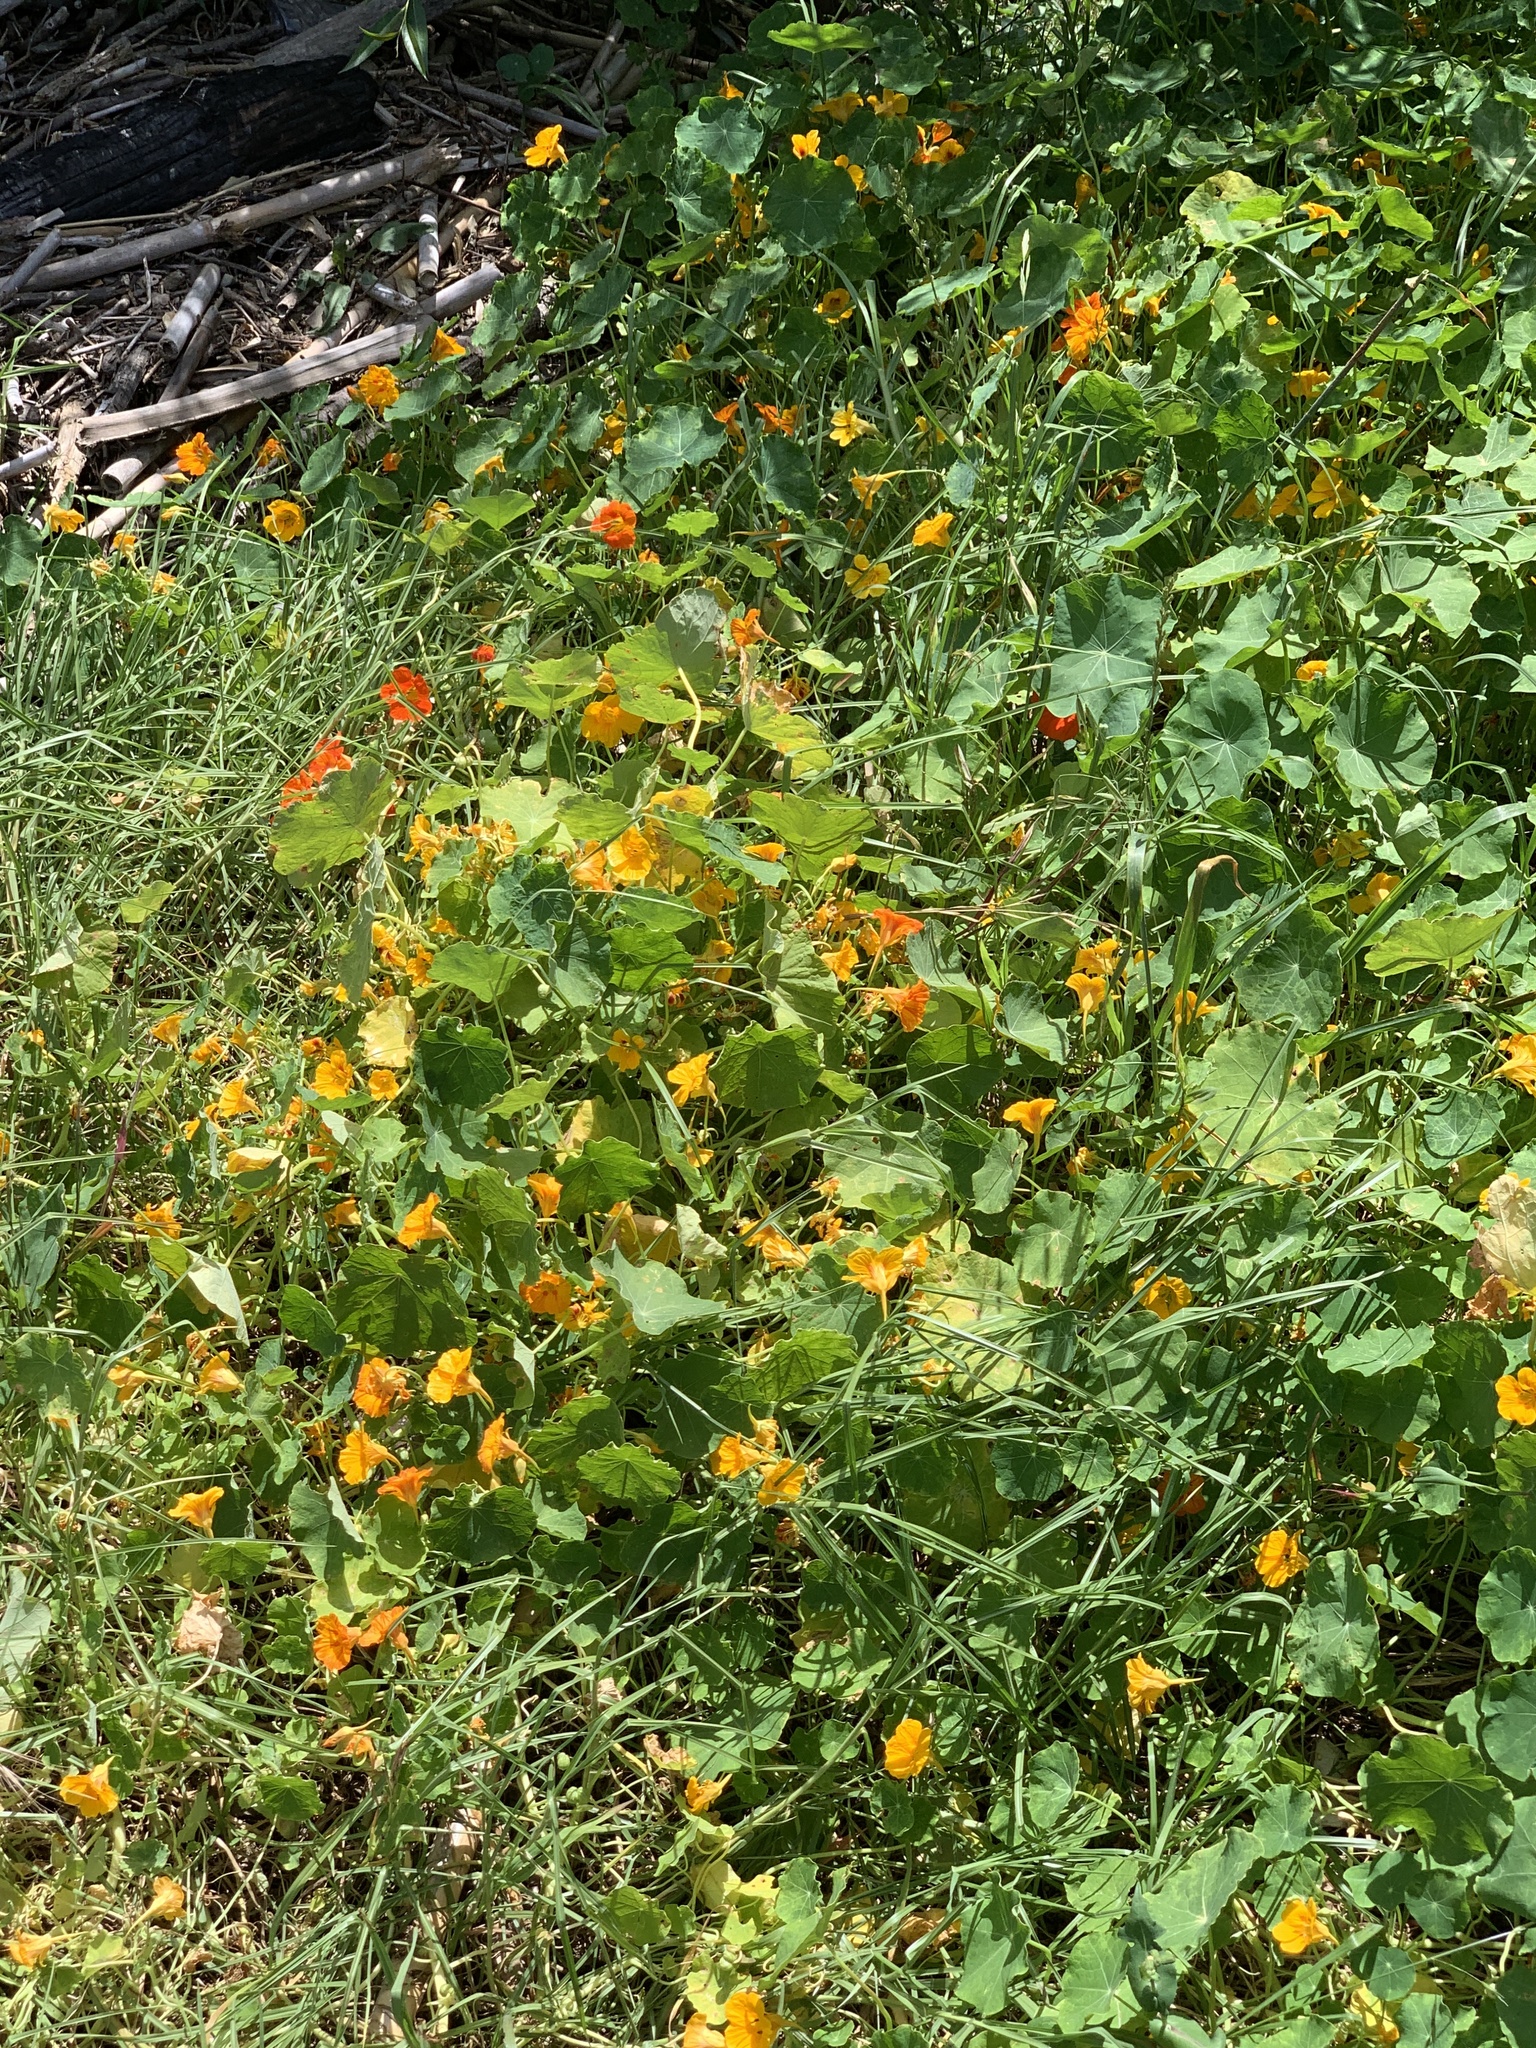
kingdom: Plantae
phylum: Tracheophyta
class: Magnoliopsida
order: Brassicales
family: Tropaeolaceae
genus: Tropaeolum
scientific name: Tropaeolum majus
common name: Nasturtium
